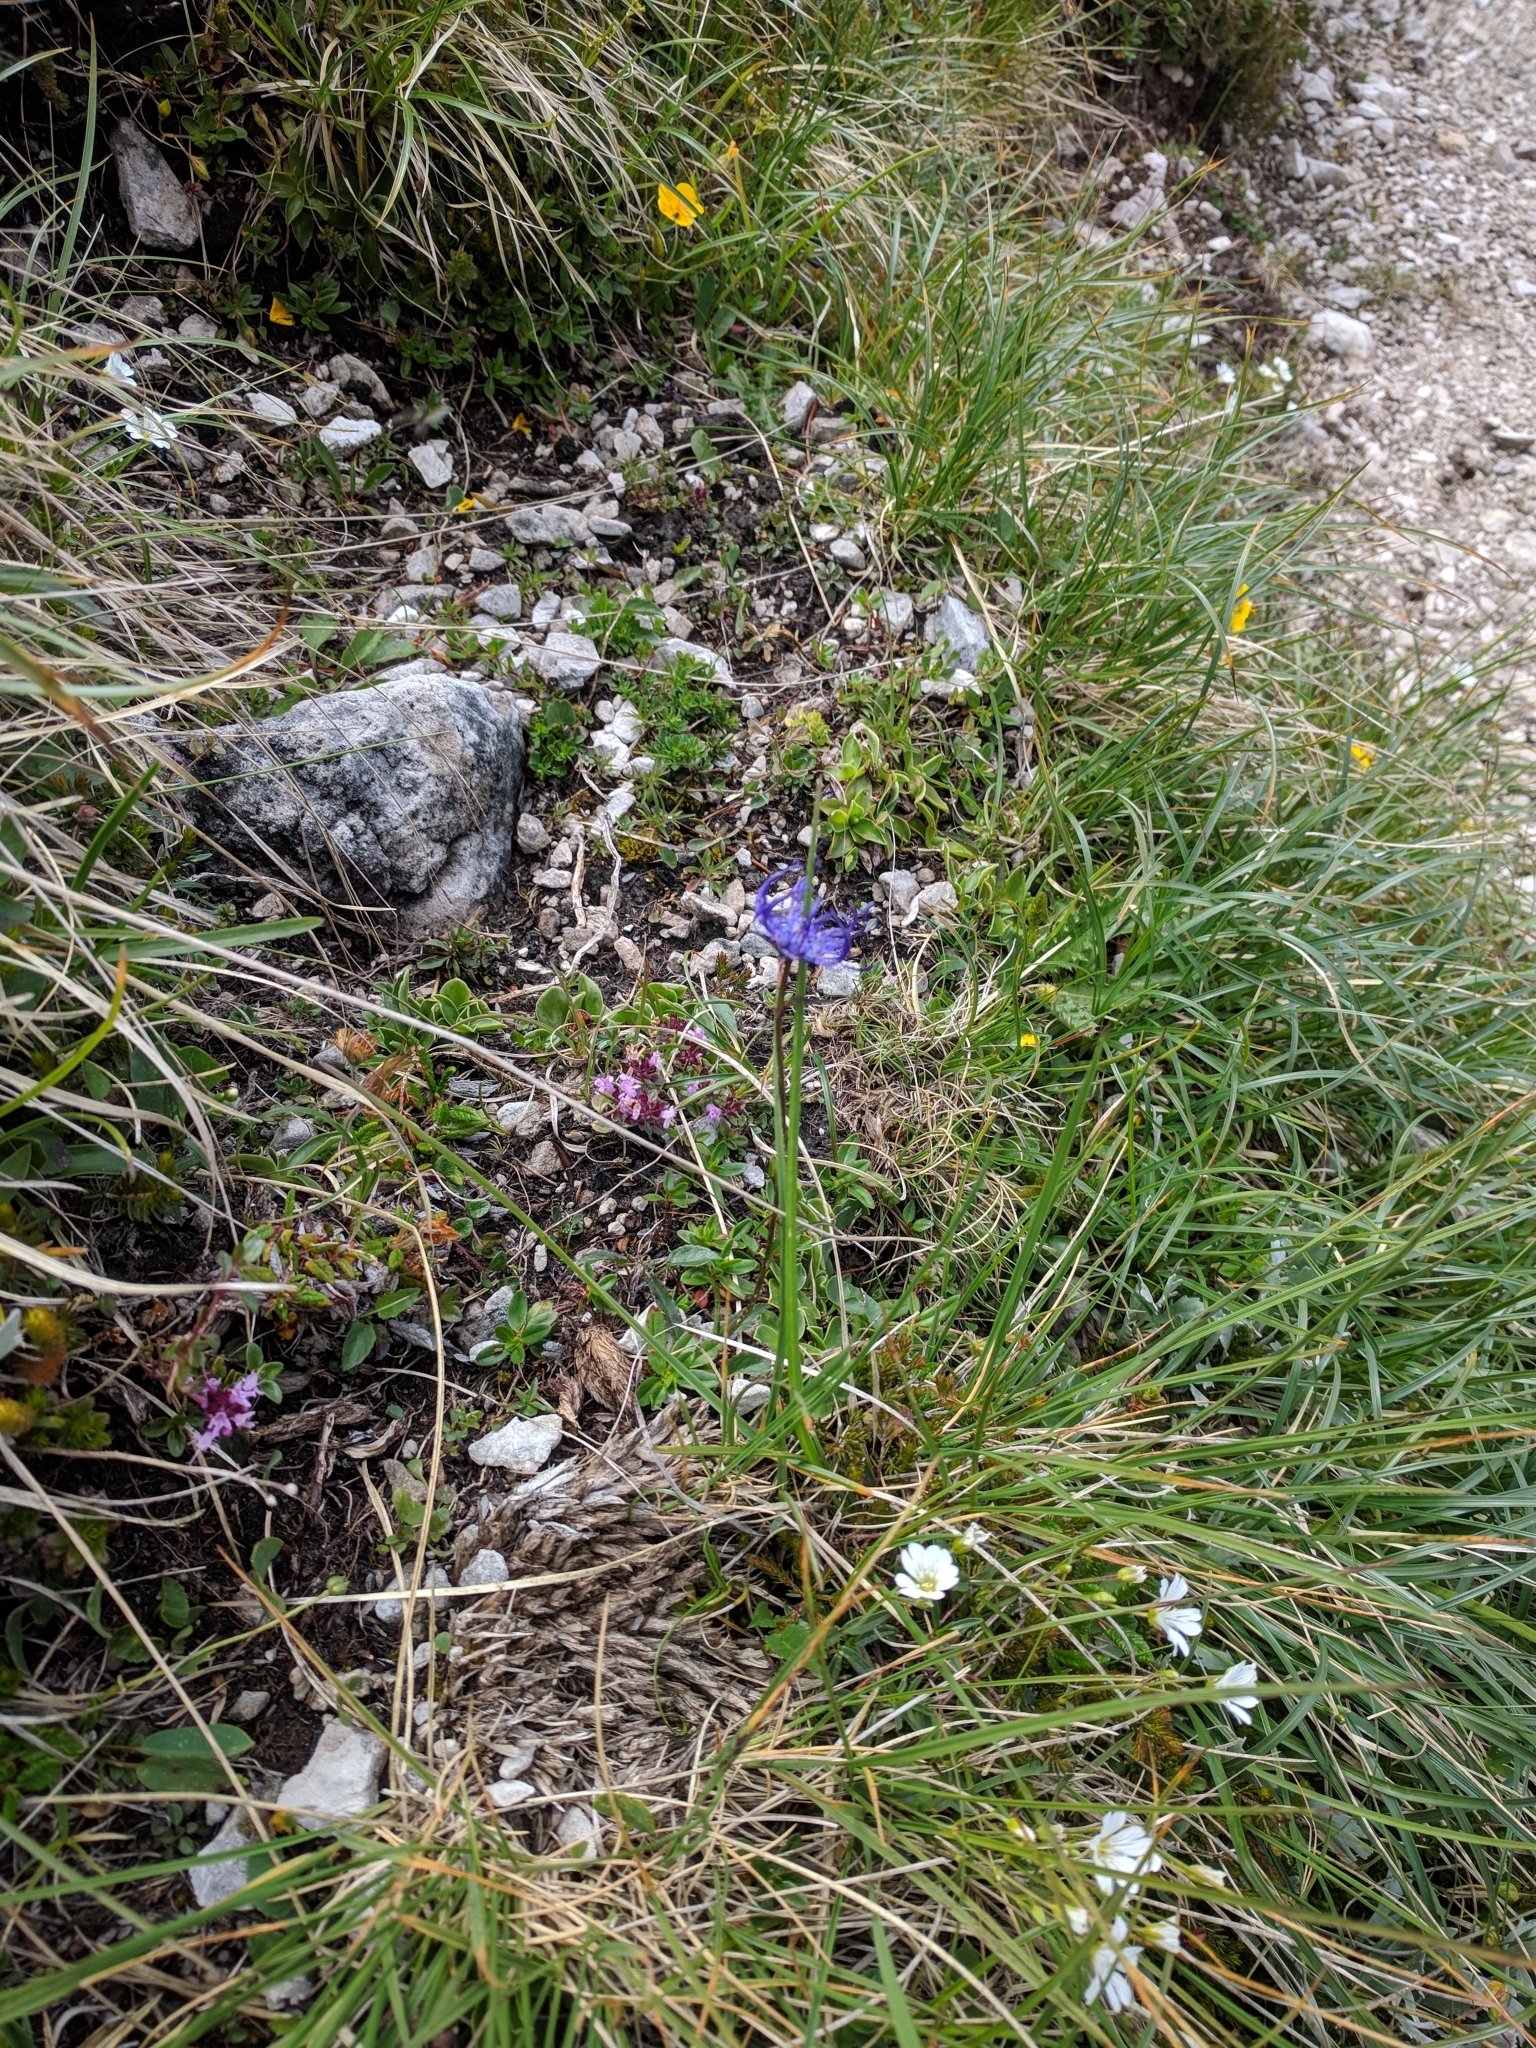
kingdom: Plantae
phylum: Tracheophyta
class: Magnoliopsida
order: Asterales
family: Campanulaceae
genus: Phyteuma
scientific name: Phyteuma orbiculare
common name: Round-headed rampion
